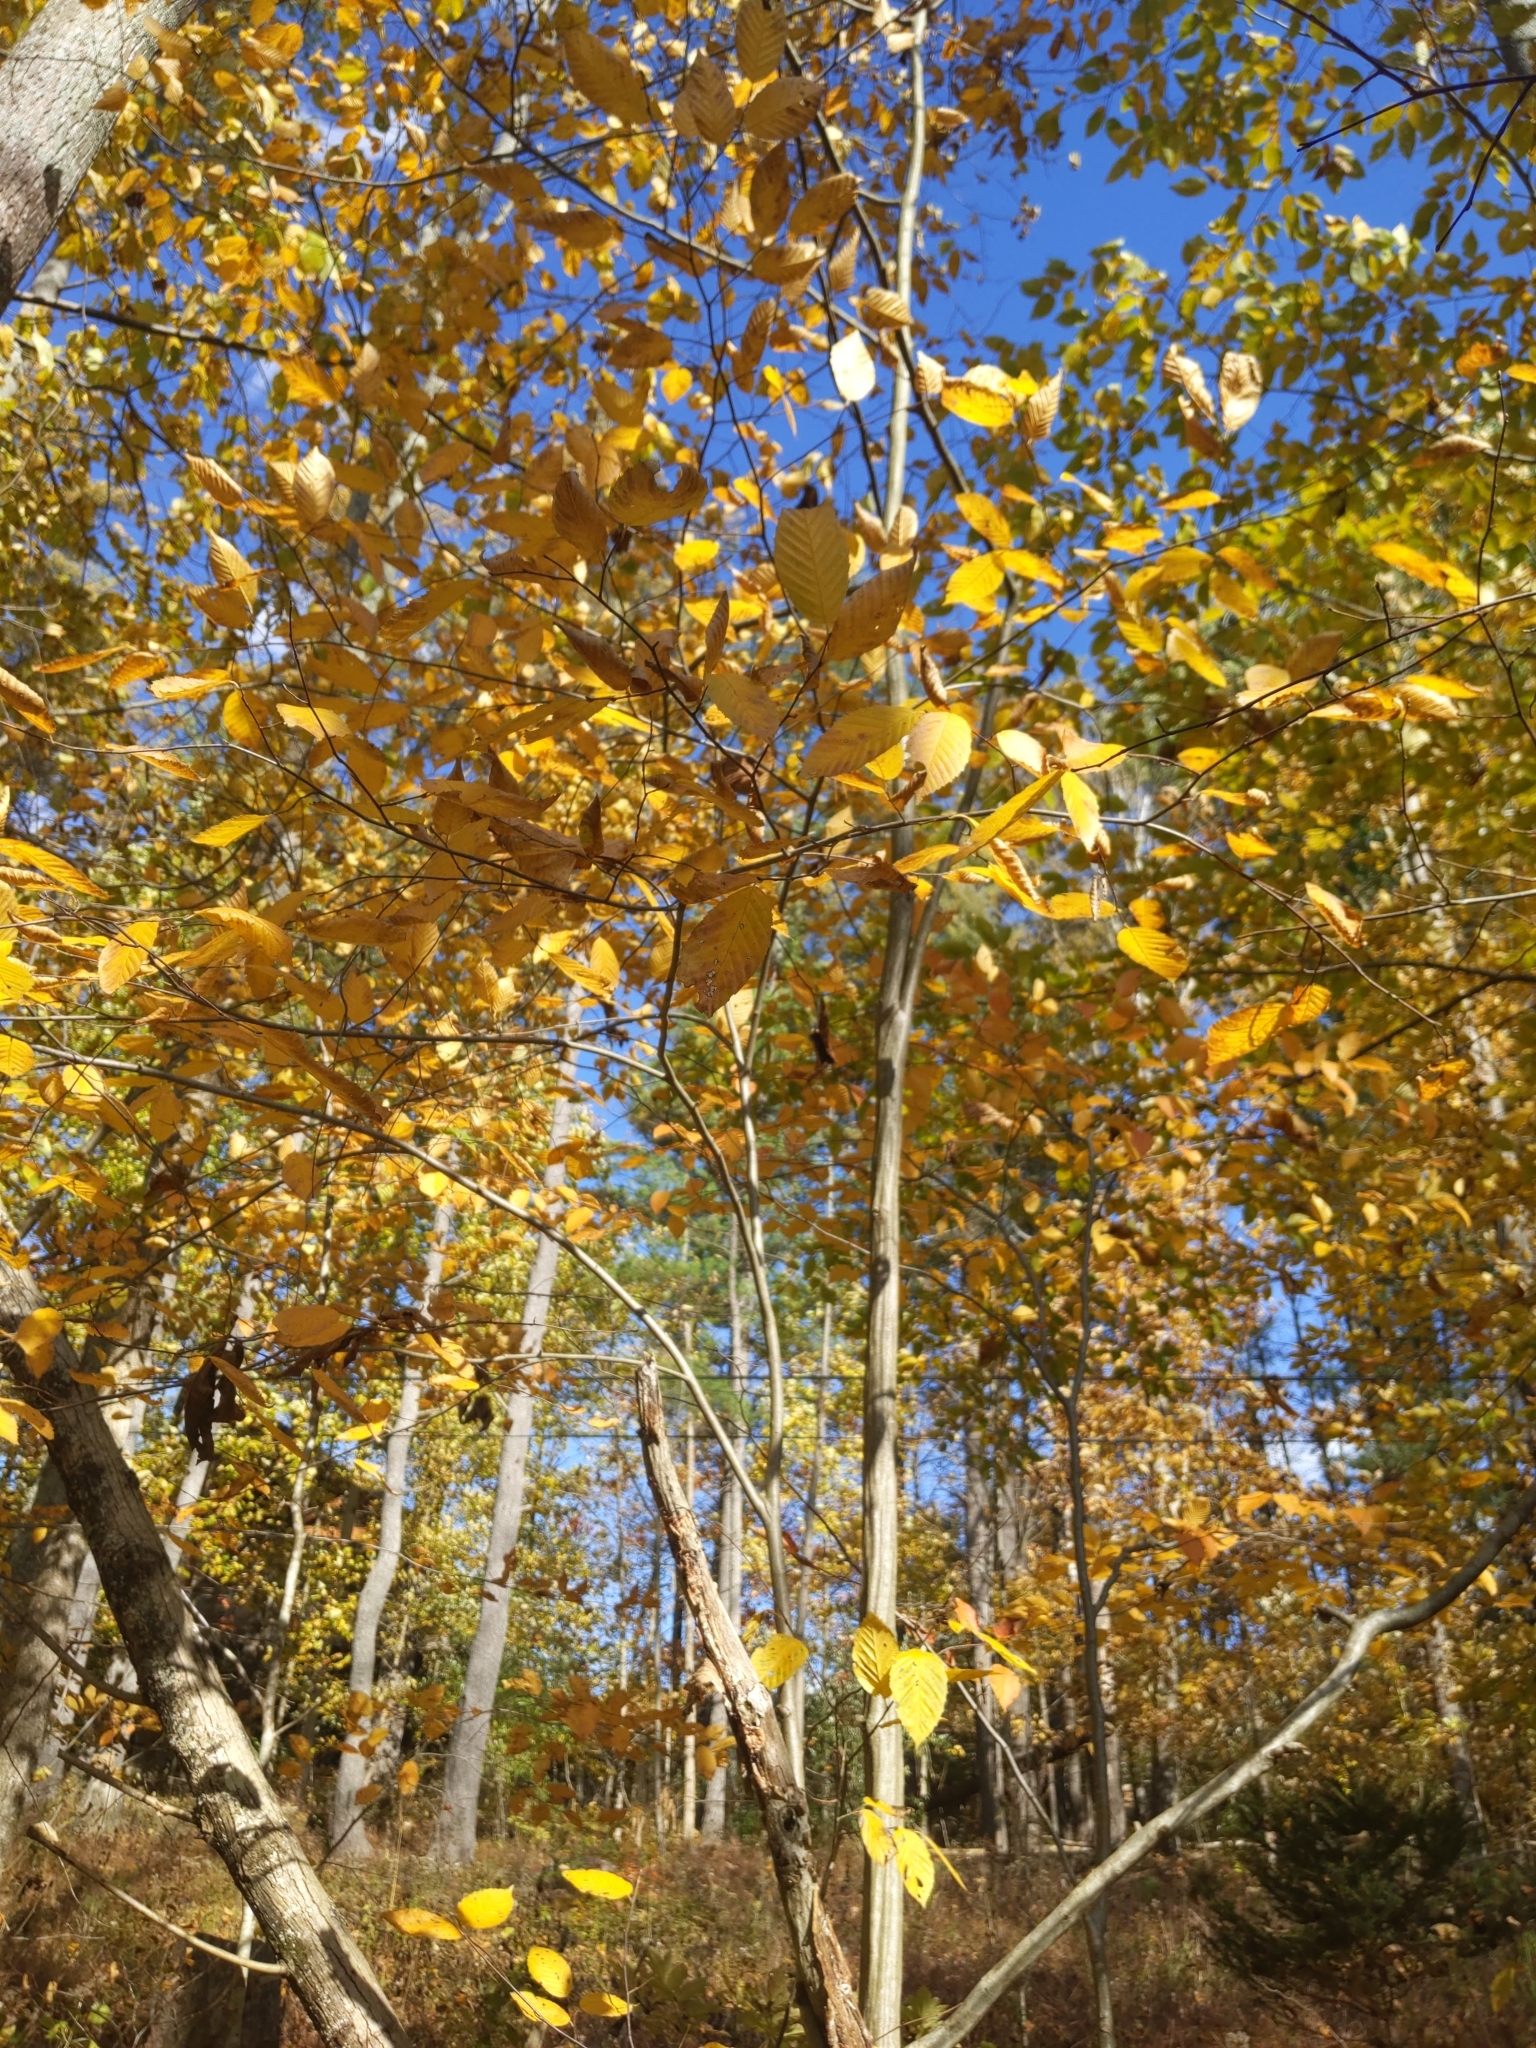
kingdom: Plantae
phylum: Tracheophyta
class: Magnoliopsida
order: Fagales
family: Betulaceae
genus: Carpinus
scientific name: Carpinus caroliniana
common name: American hornbeam
